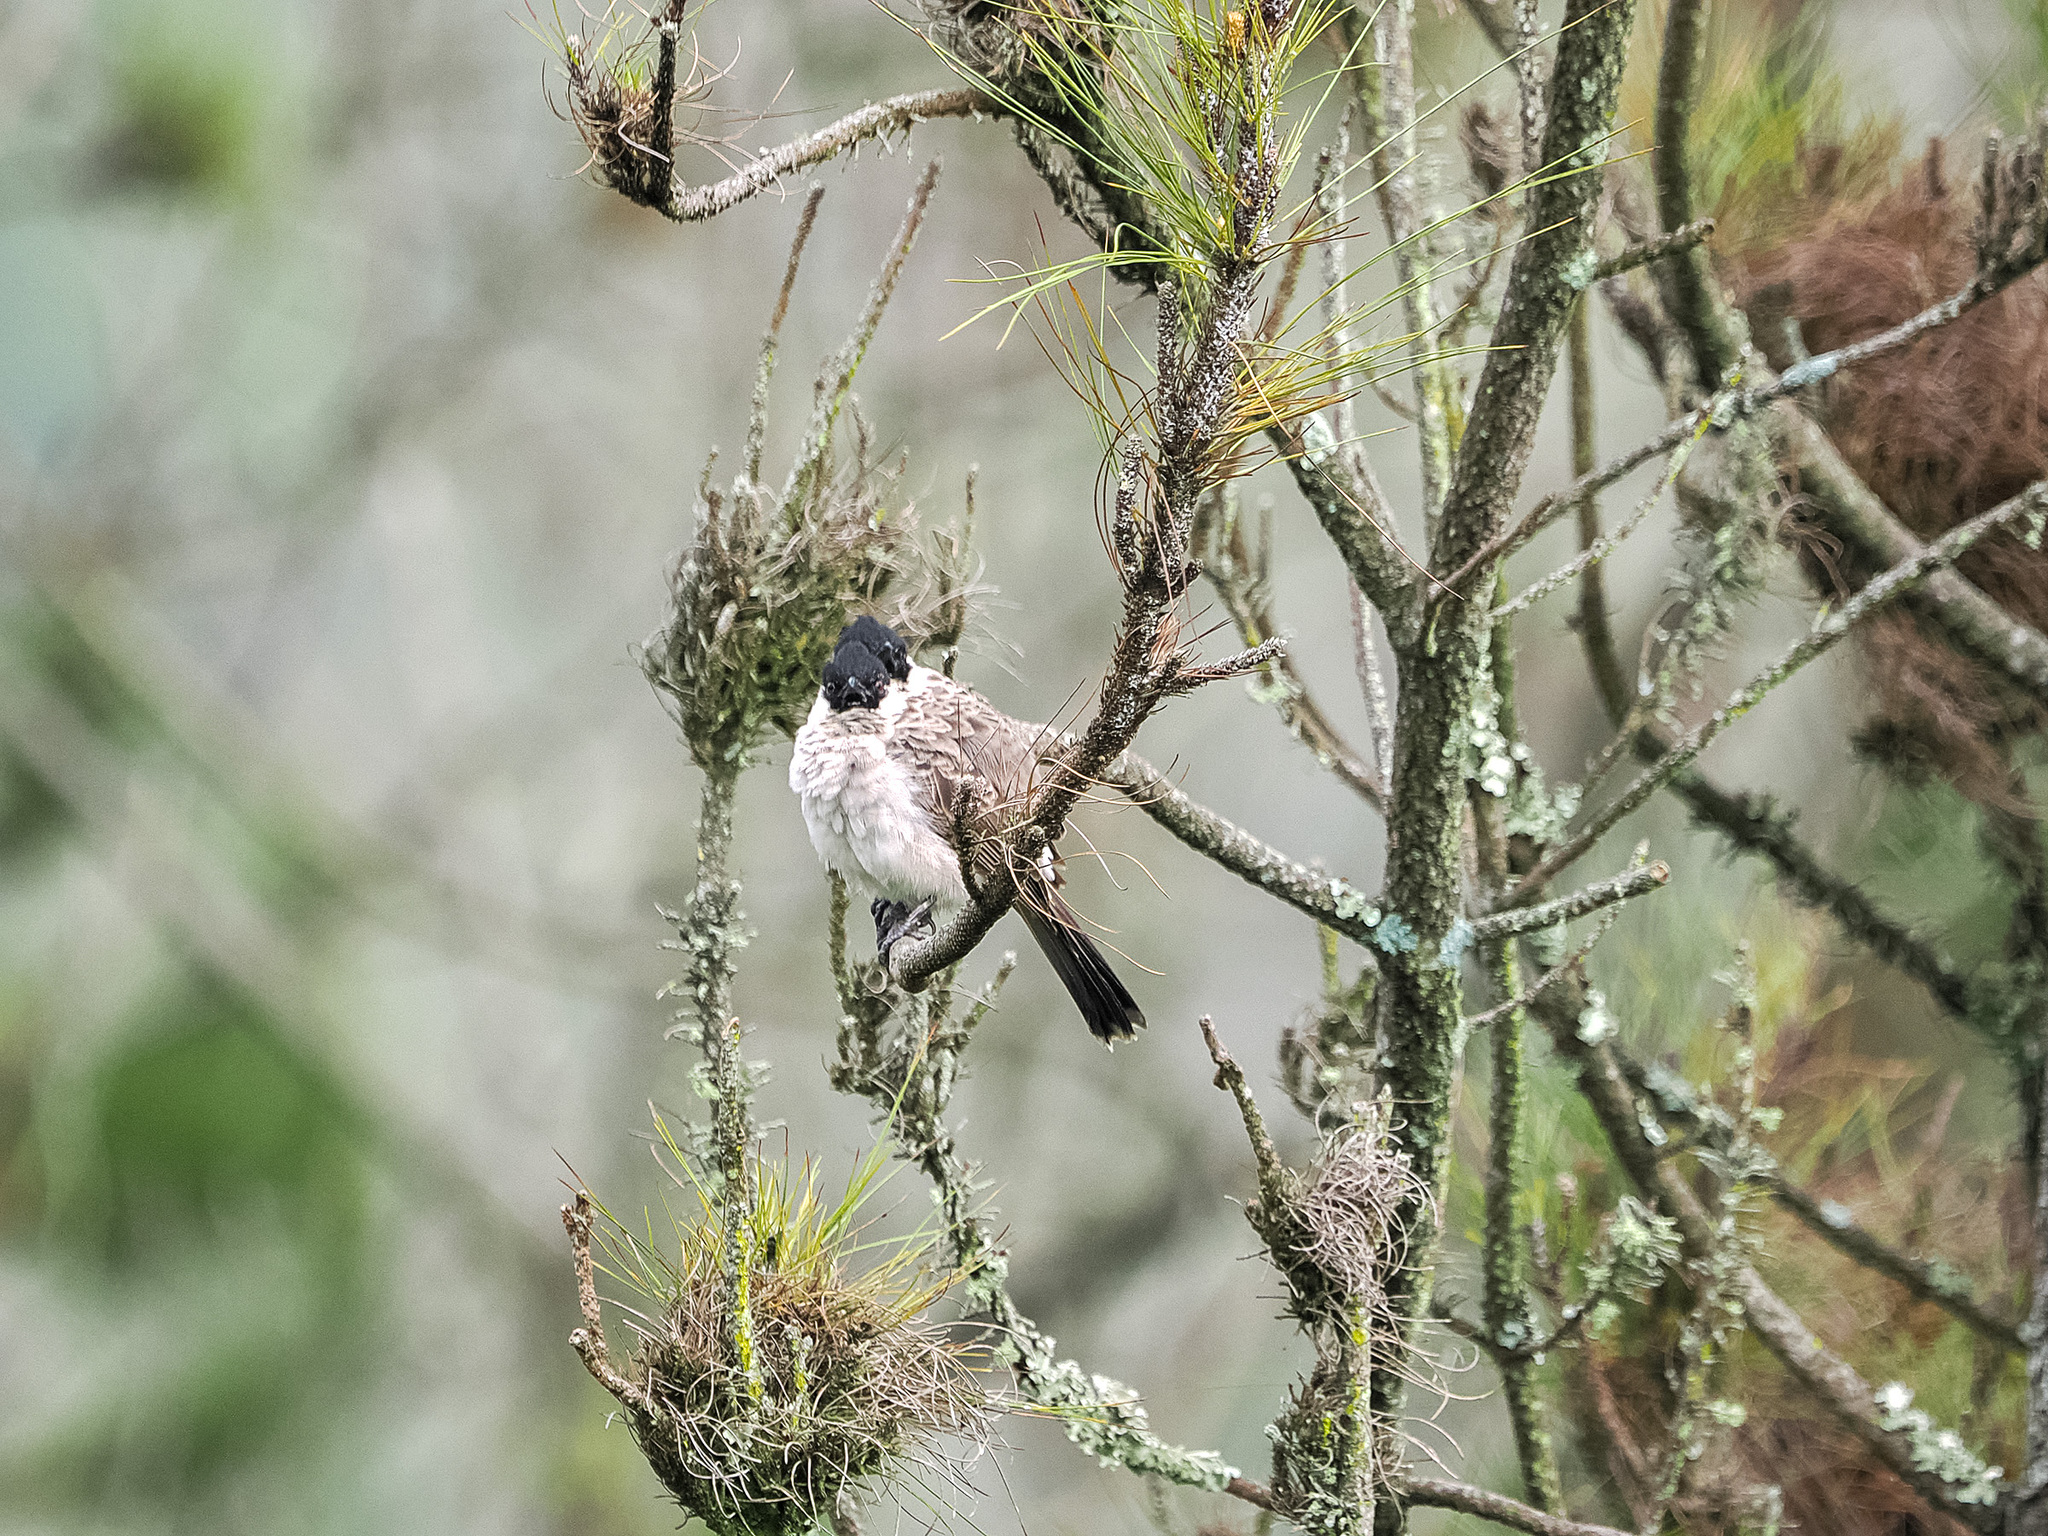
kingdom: Animalia
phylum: Chordata
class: Aves
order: Passeriformes
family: Pycnonotidae
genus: Pycnonotus
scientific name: Pycnonotus aurigaster
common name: Sooty-headed bulbul
